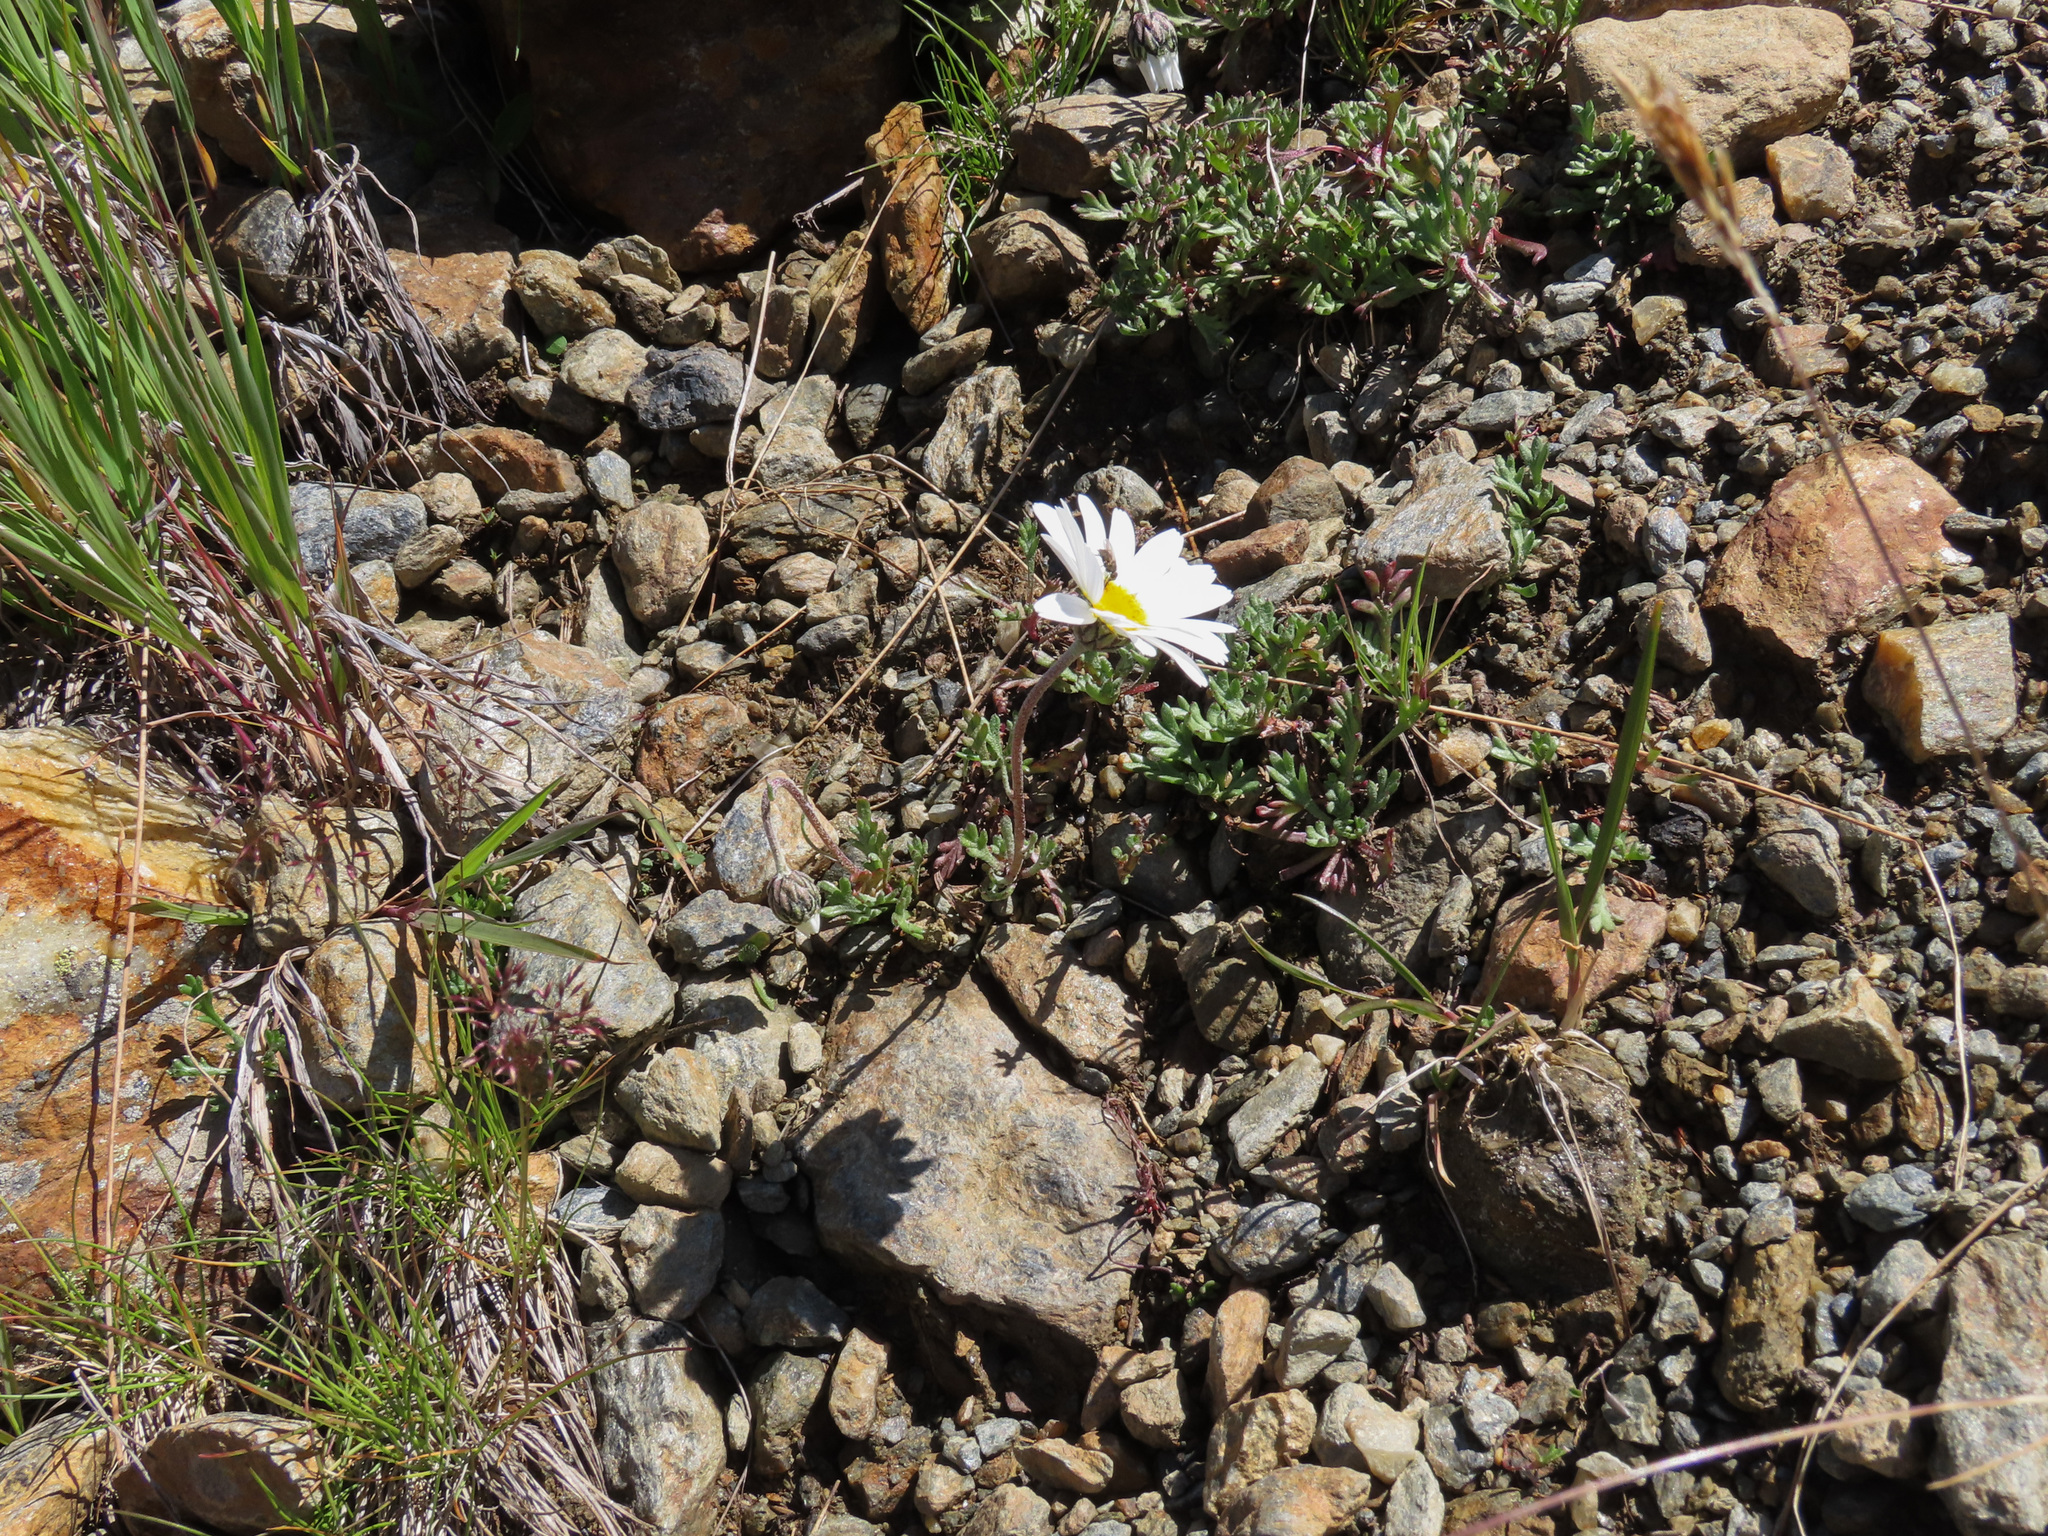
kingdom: Plantae
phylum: Tracheophyta
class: Magnoliopsida
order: Asterales
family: Asteraceae
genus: Leucanthemopsis
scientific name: Leucanthemopsis alpina
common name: Alpine moon daisy
